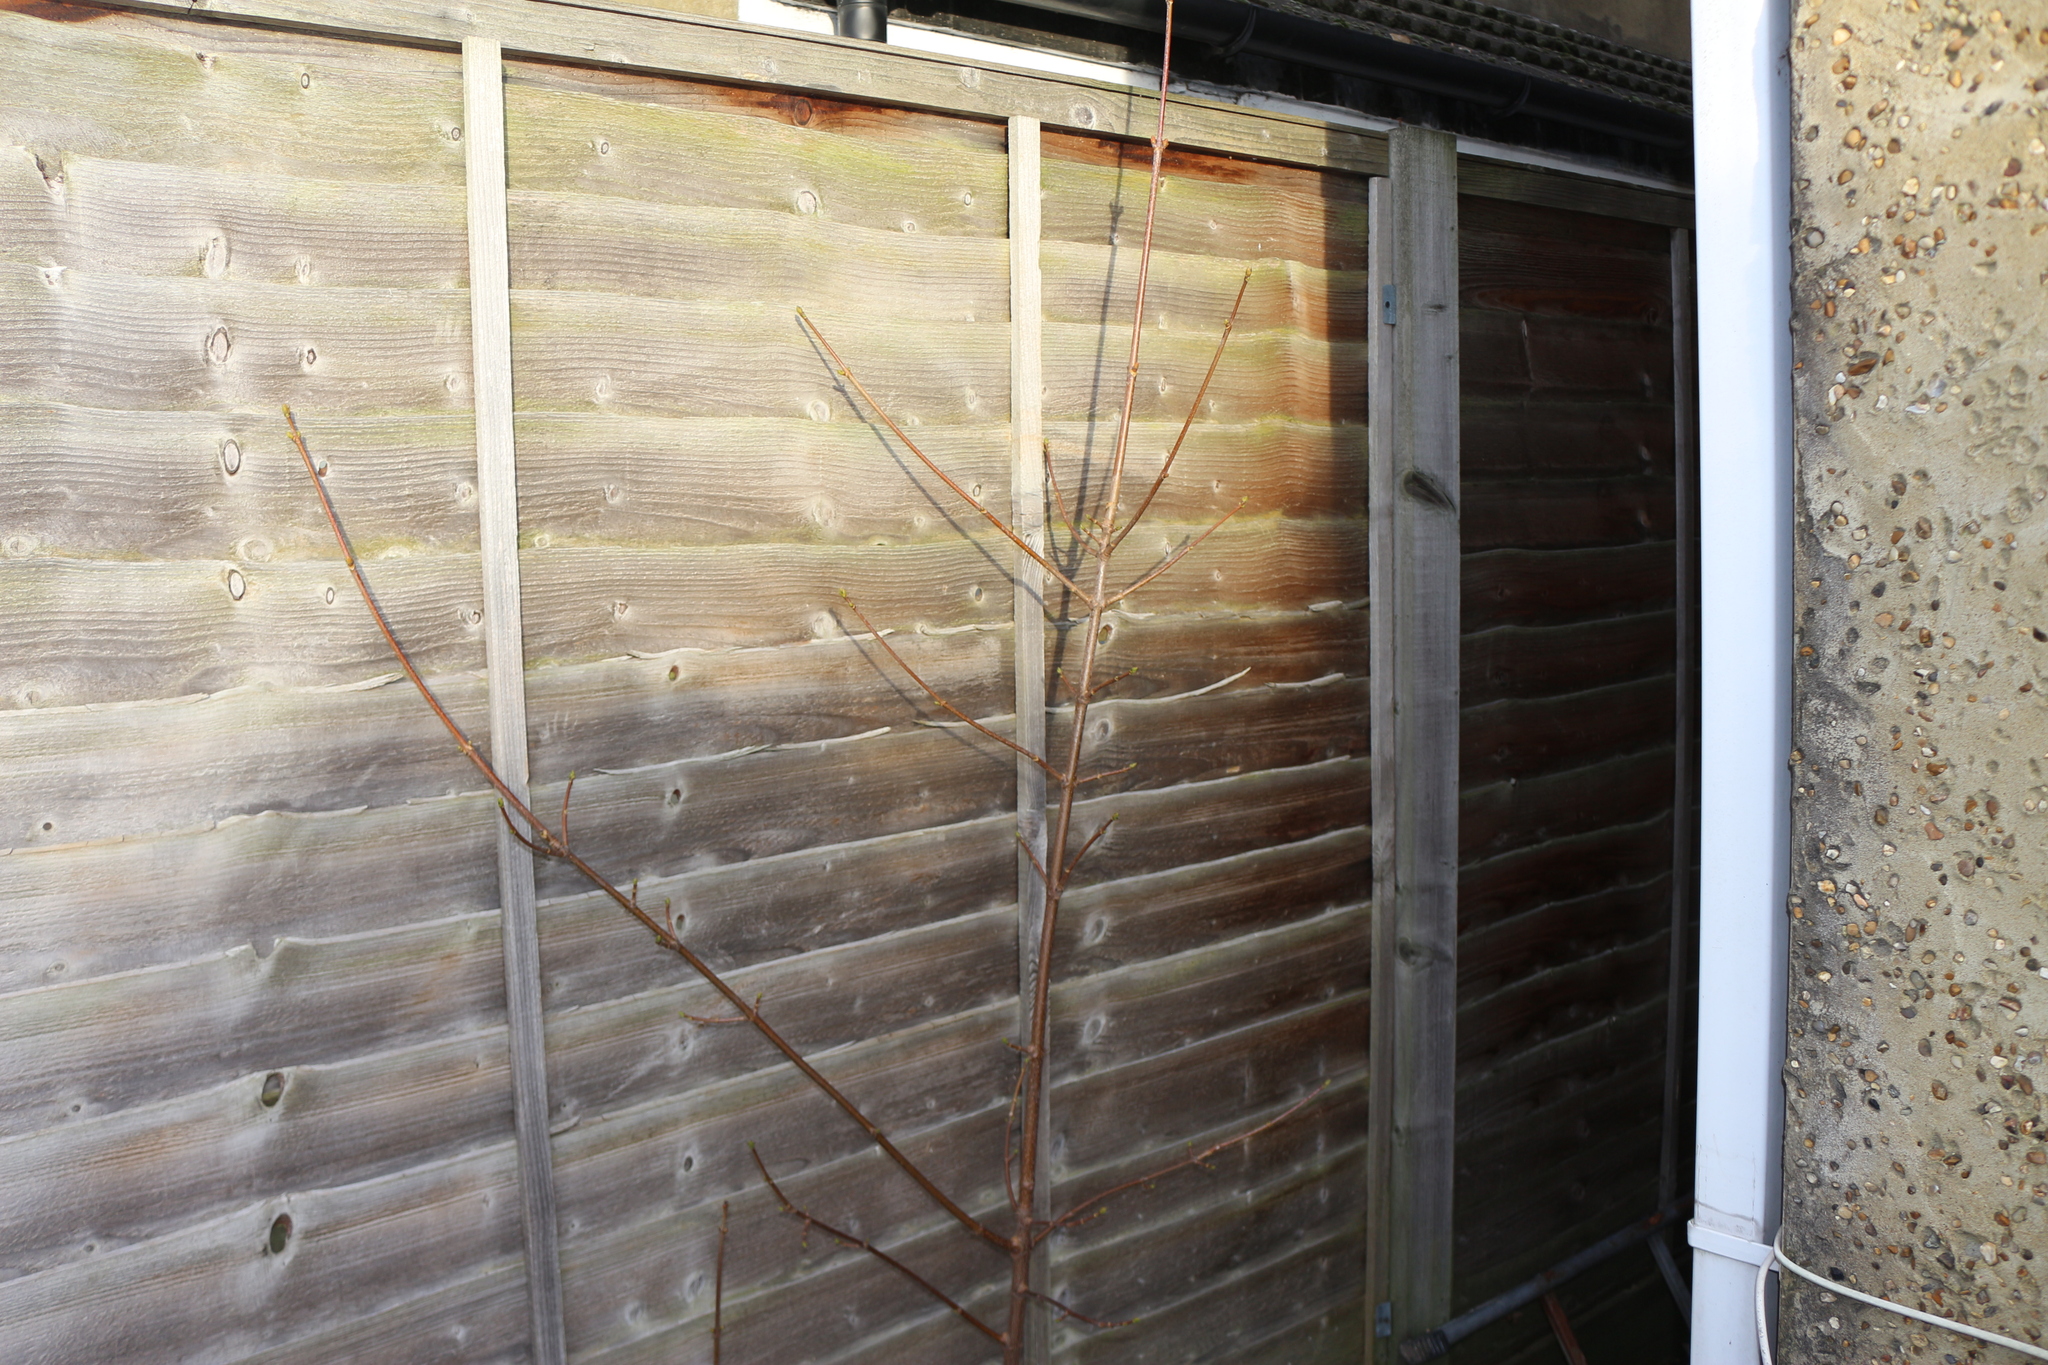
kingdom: Plantae
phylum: Tracheophyta
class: Magnoliopsida
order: Sapindales
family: Sapindaceae
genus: Acer
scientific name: Acer pseudoplatanus
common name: Sycamore
